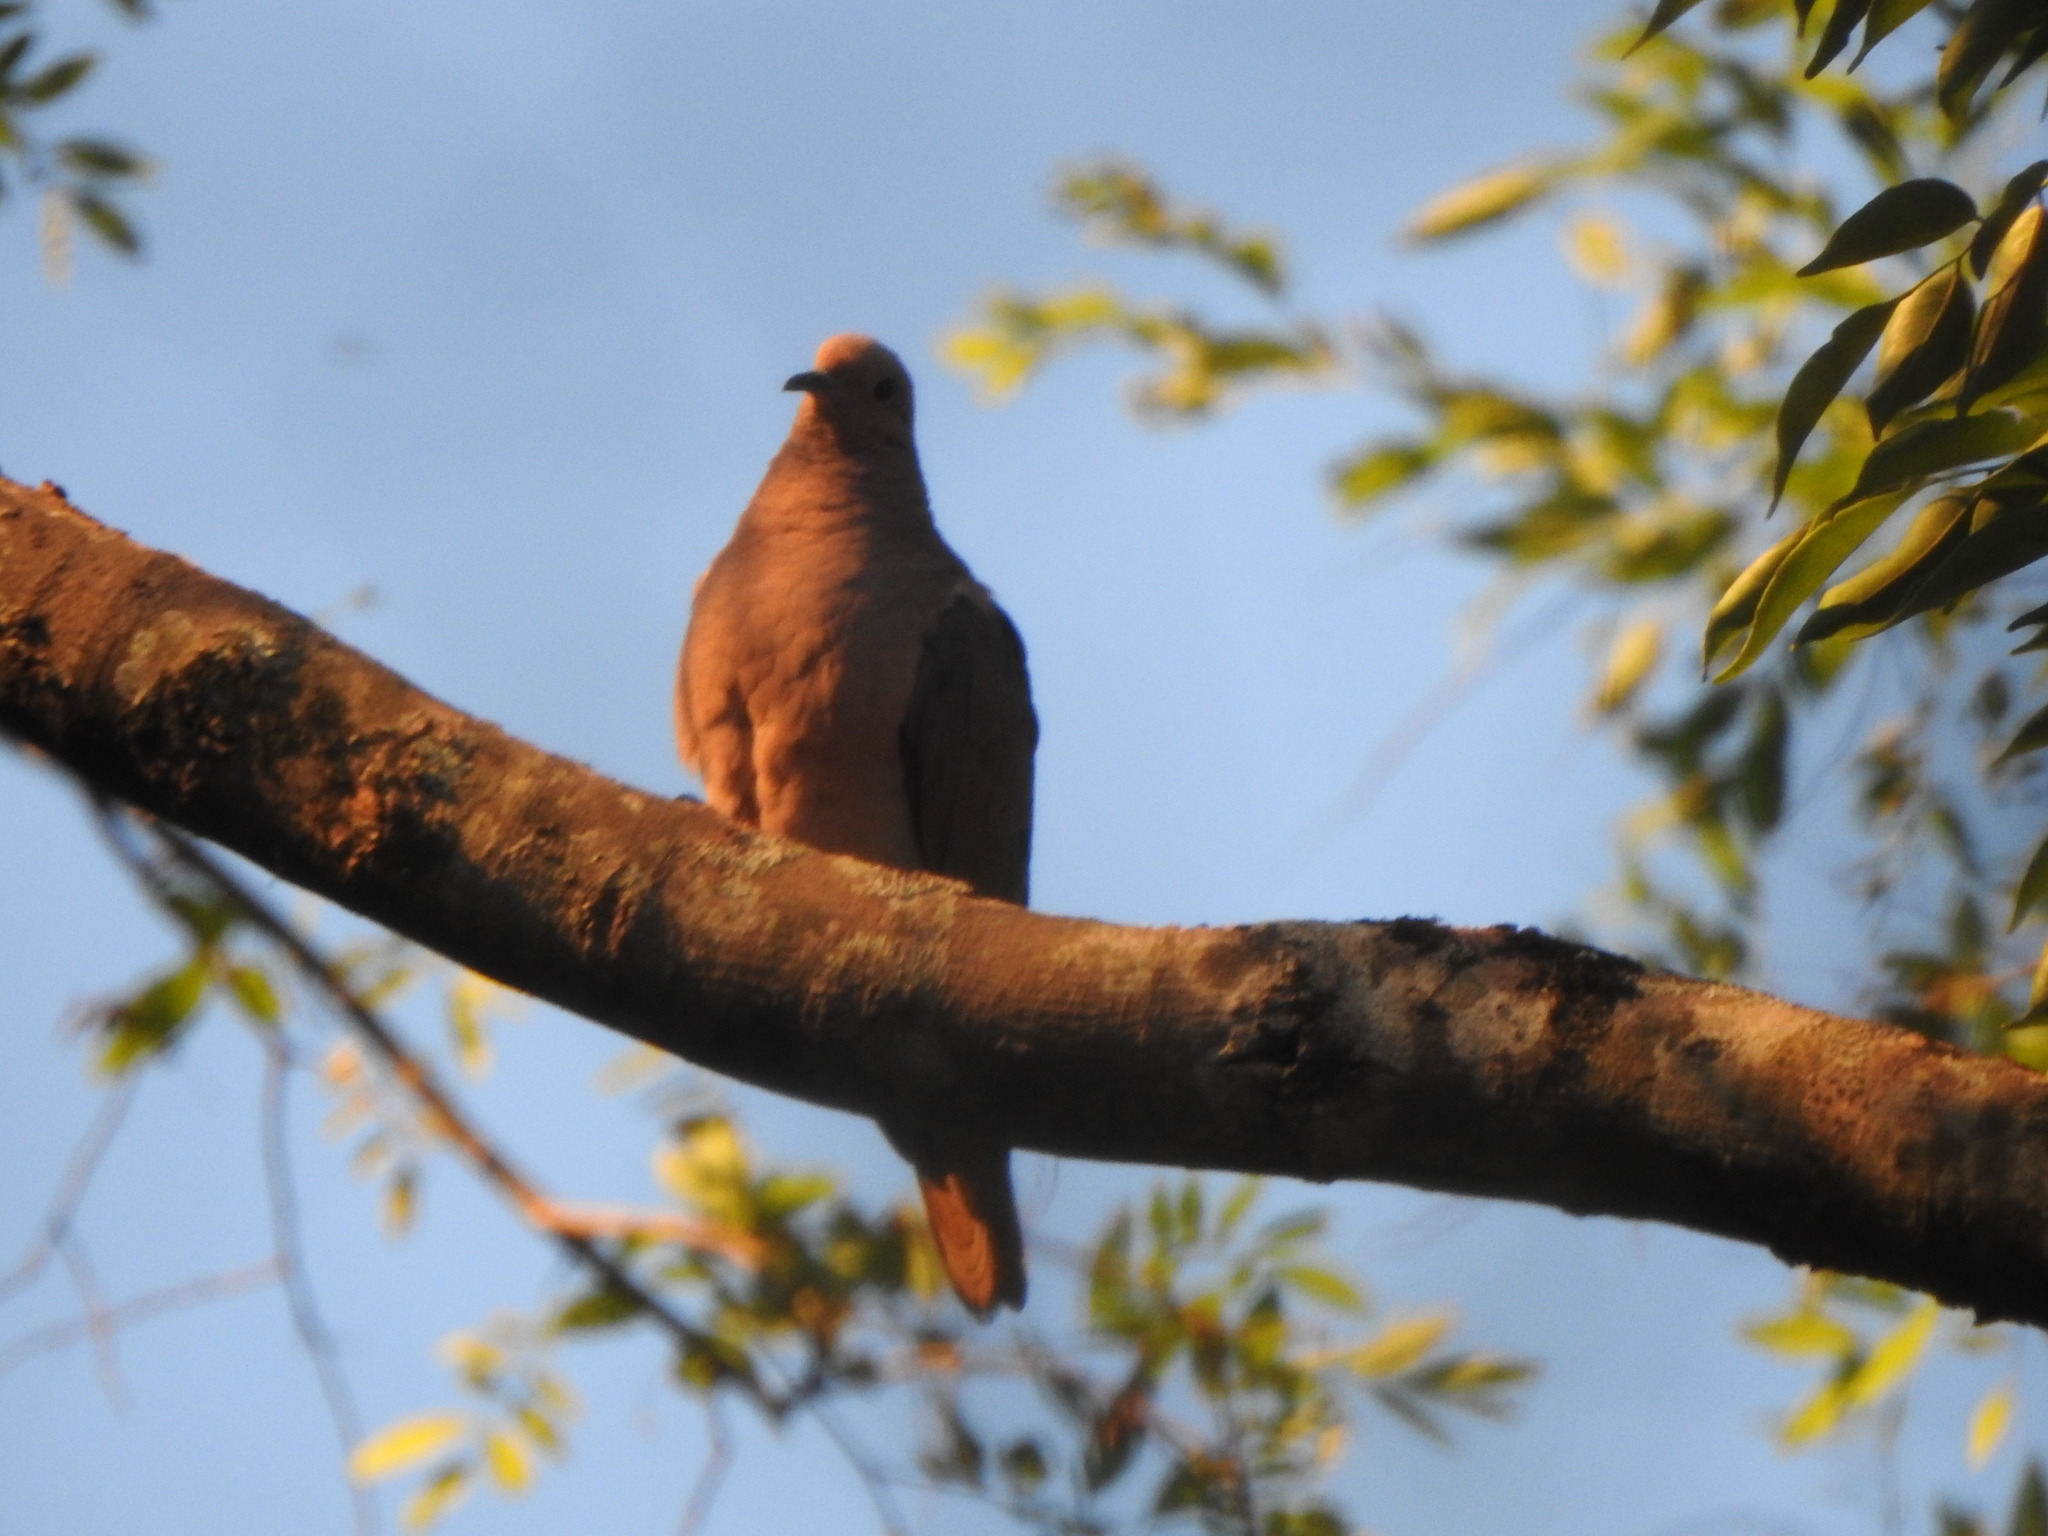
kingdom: Animalia
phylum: Chordata
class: Aves
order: Columbiformes
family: Columbidae
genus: Zenaida
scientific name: Zenaida auriculata
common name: Eared dove
